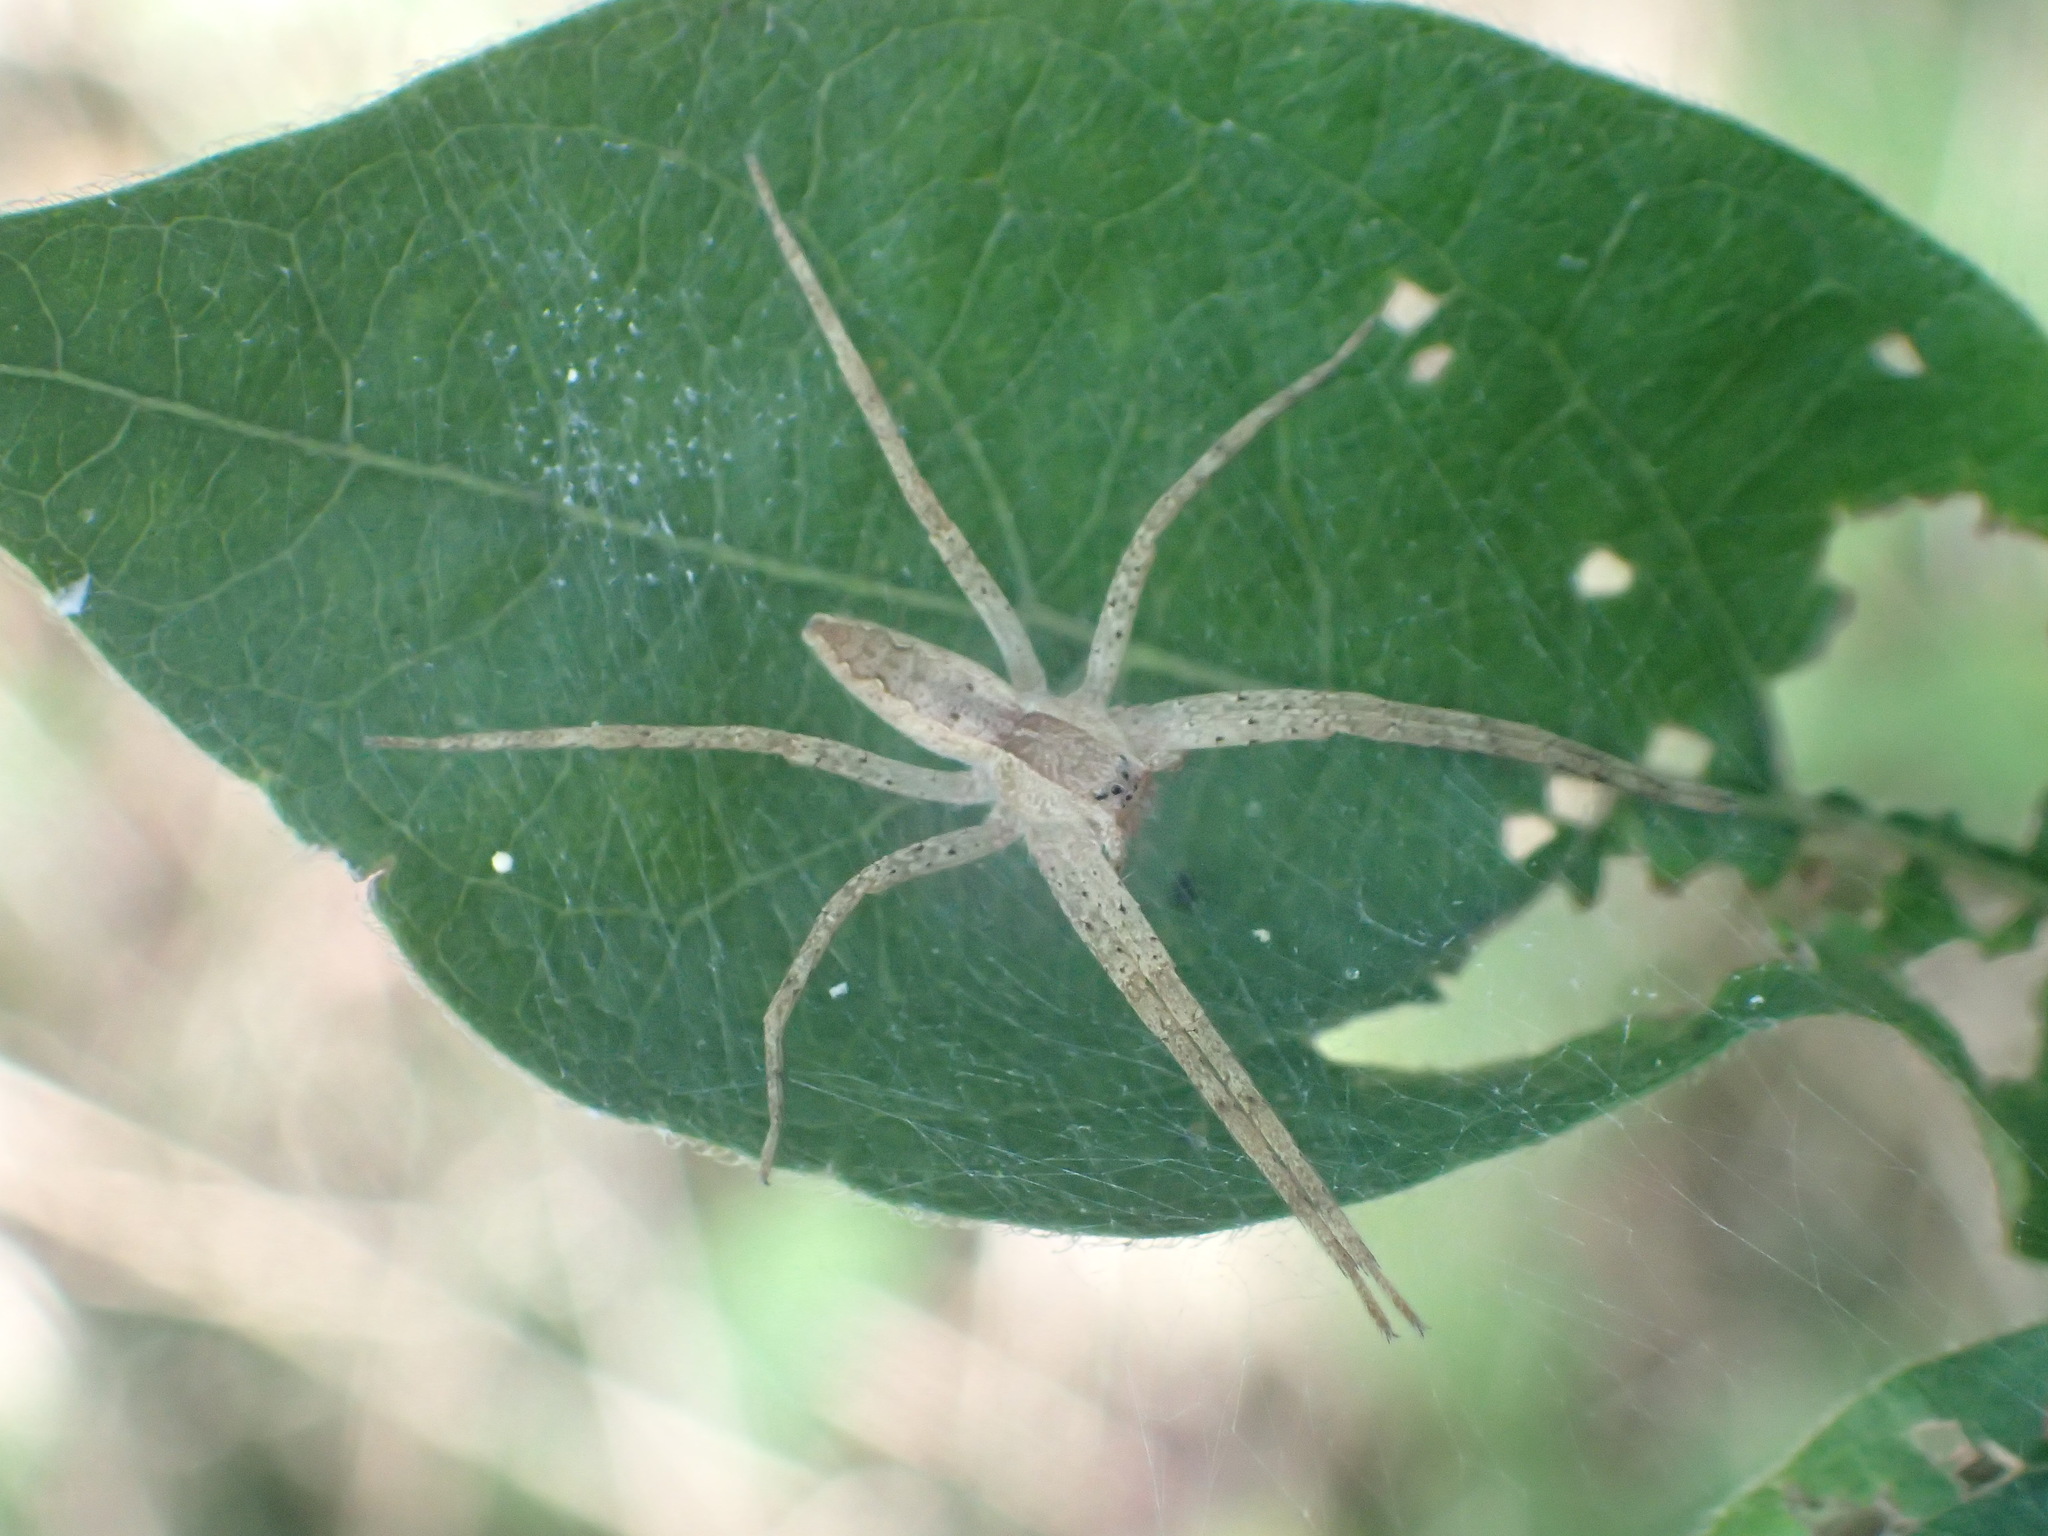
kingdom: Animalia
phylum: Arthropoda
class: Arachnida
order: Araneae
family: Pisauridae
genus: Pisaurina
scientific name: Pisaurina mira
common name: American nursery web spider
